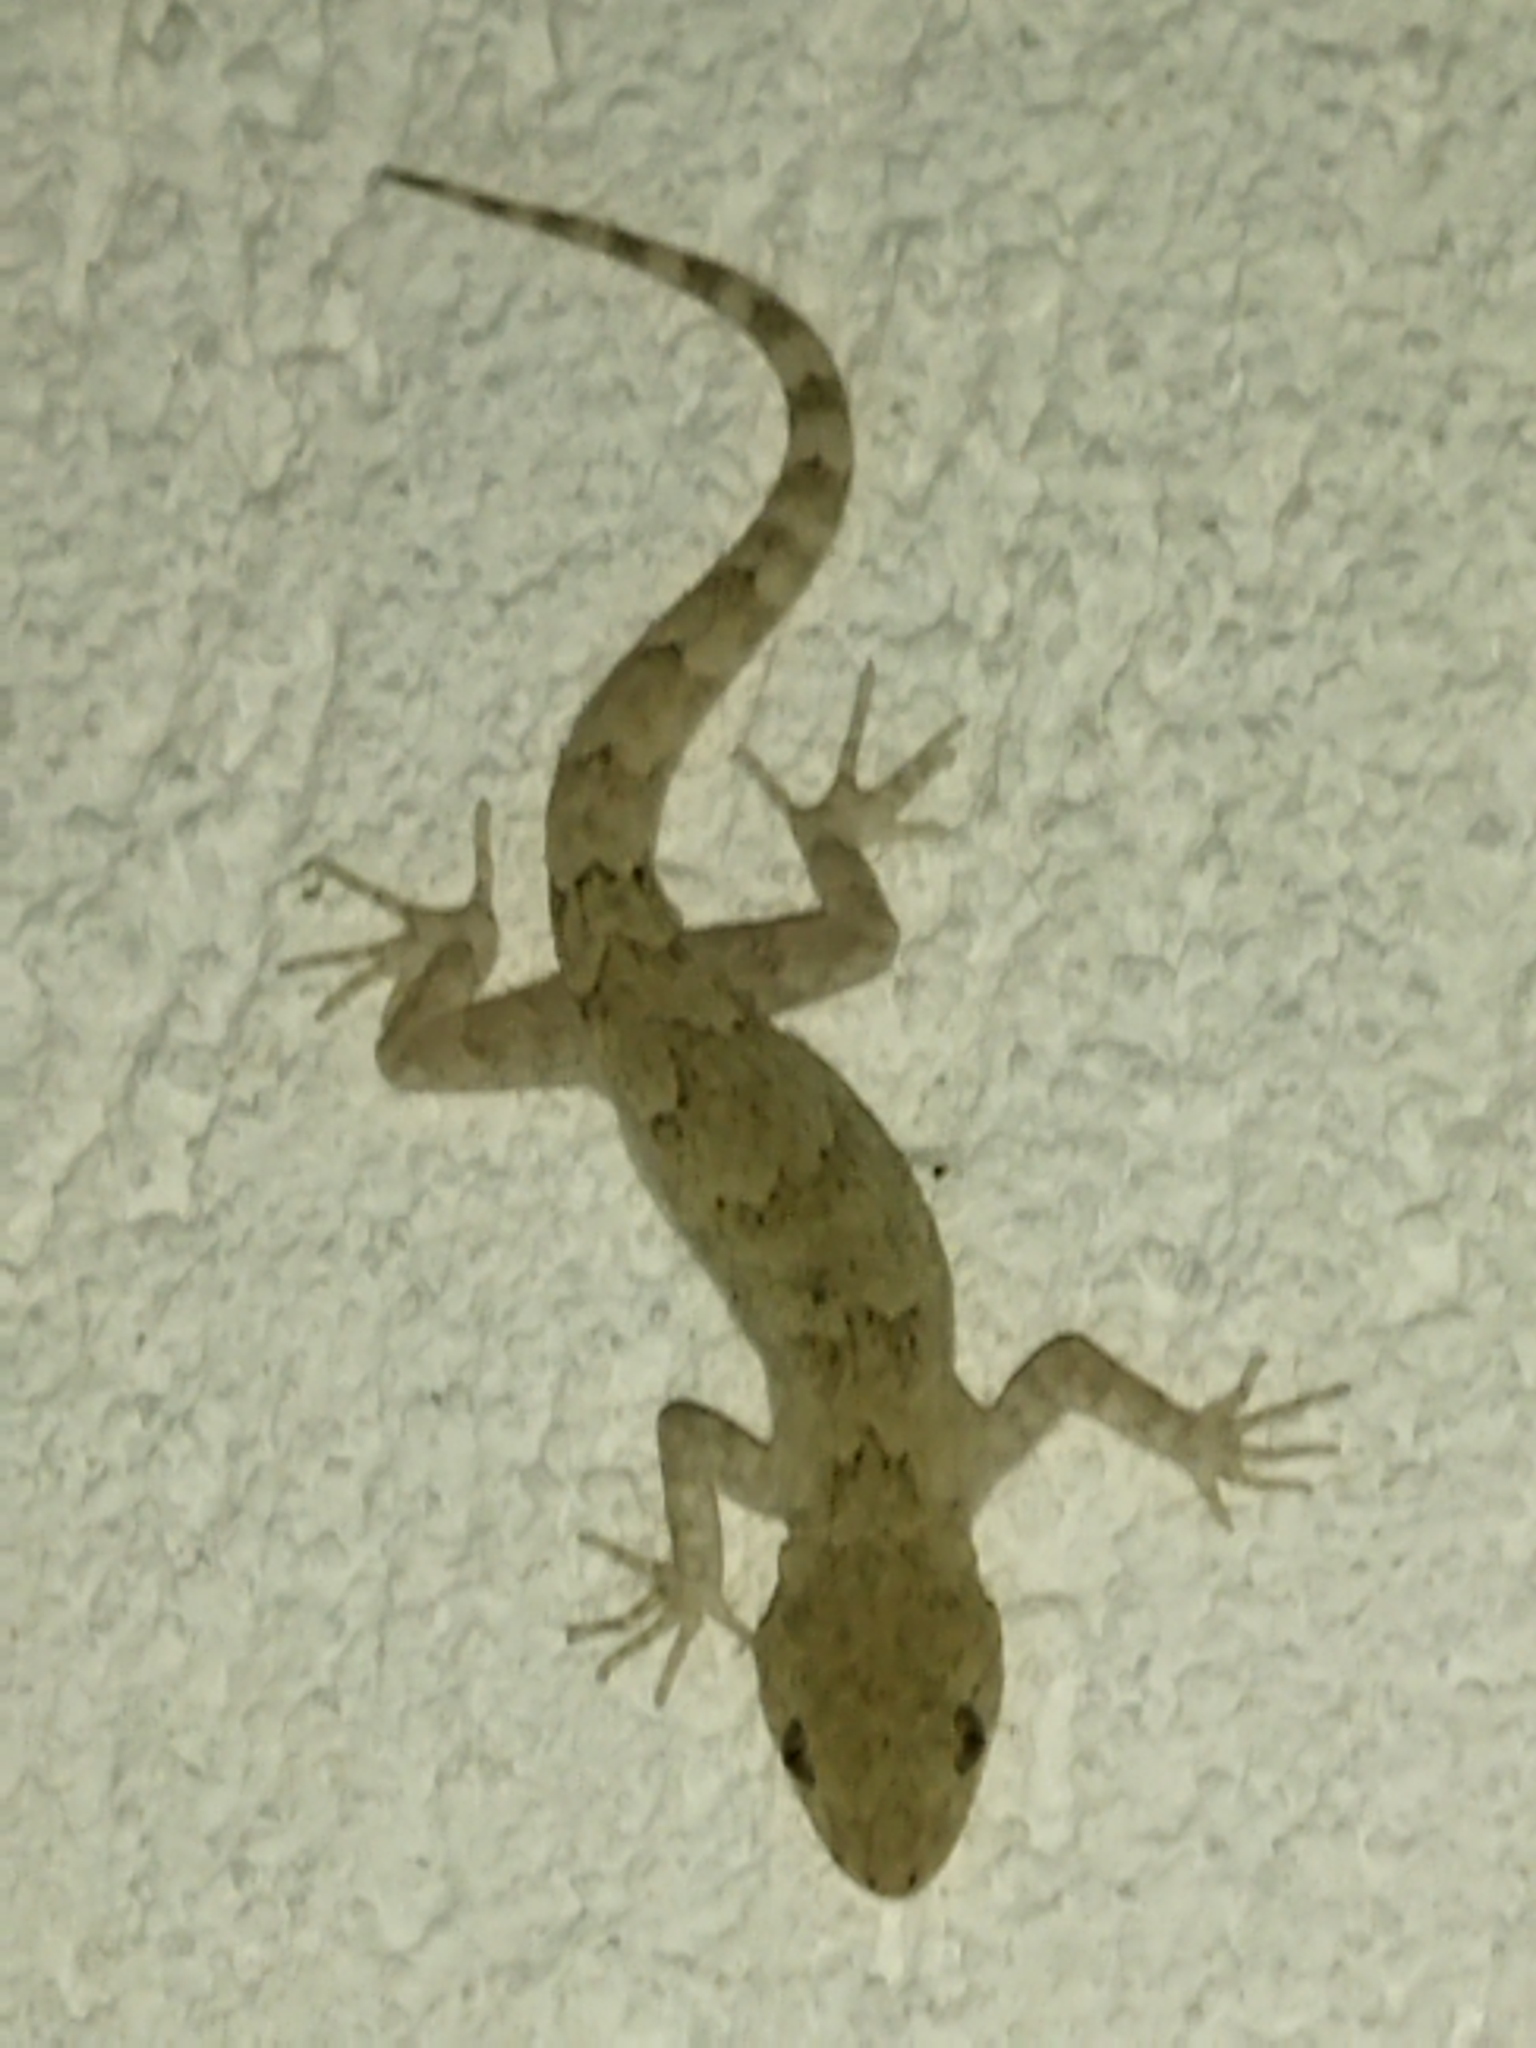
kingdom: Animalia
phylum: Chordata
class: Squamata
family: Gekkonidae
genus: Mediodactylus
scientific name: Mediodactylus kotschyi
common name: Kotschy's gecko
